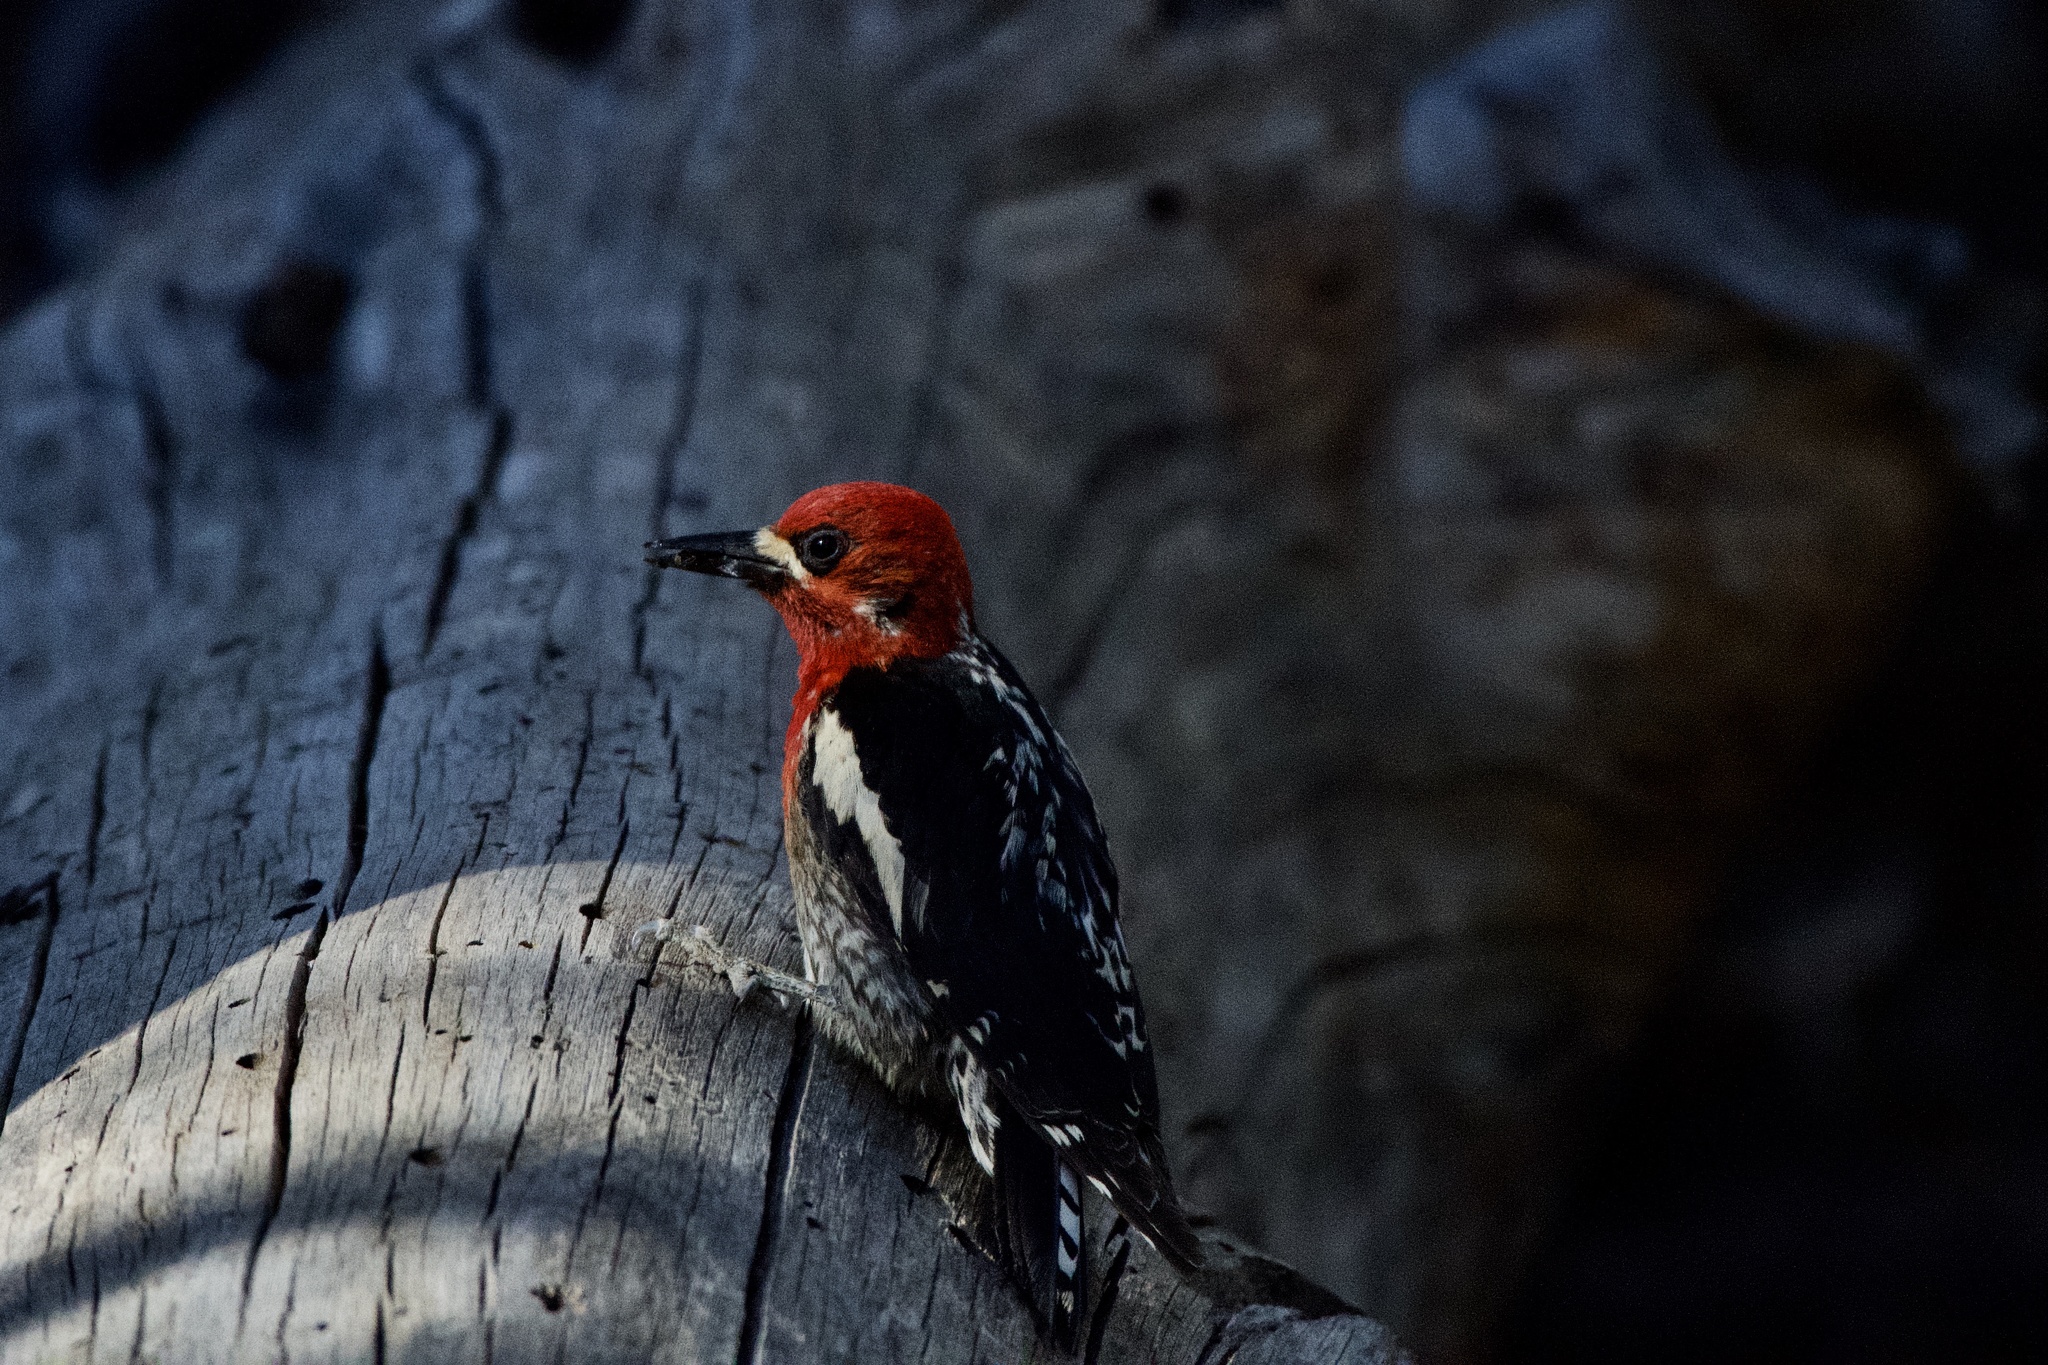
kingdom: Animalia
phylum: Chordata
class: Aves
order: Piciformes
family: Picidae
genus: Sphyrapicus
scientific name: Sphyrapicus ruber
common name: Red-breasted sapsucker
